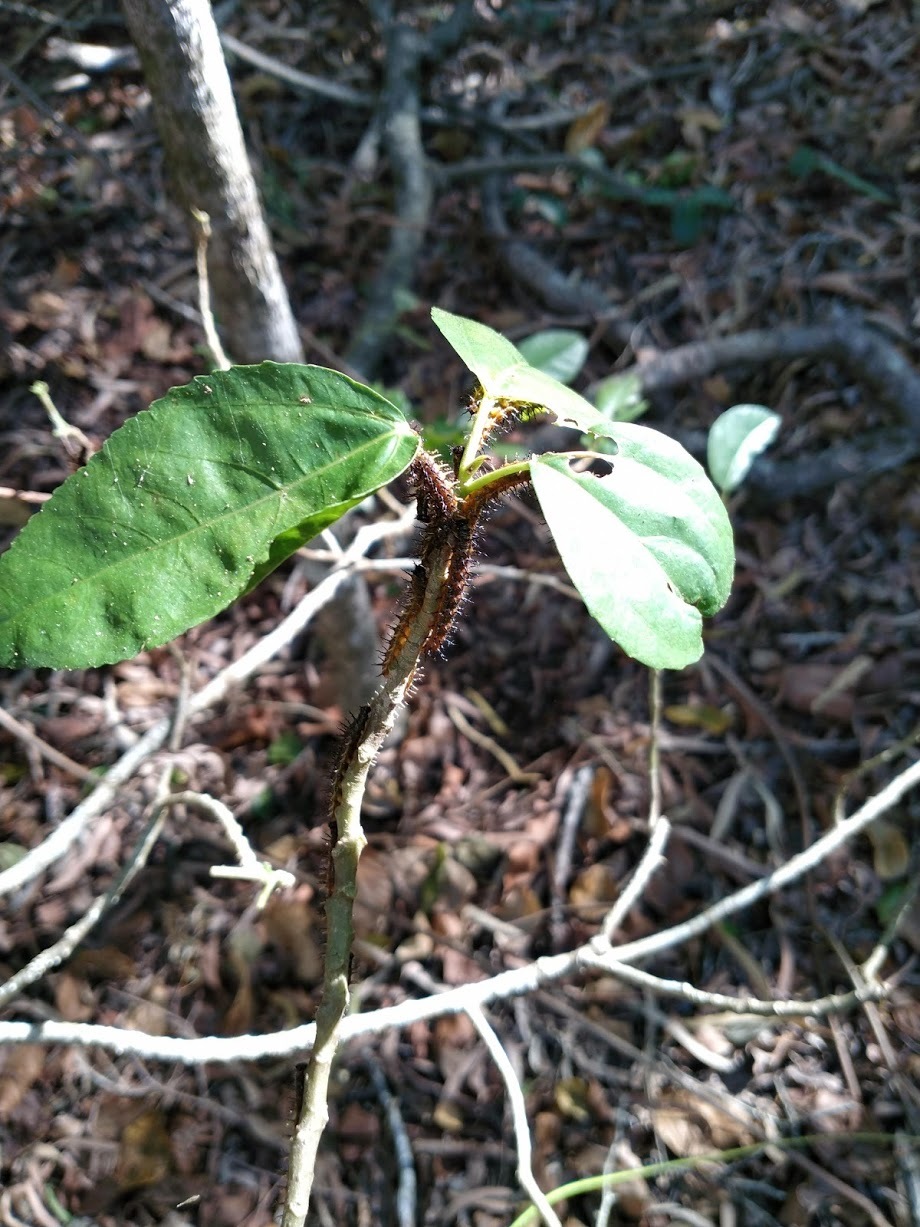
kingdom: Plantae
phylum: Tracheophyta
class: Magnoliopsida
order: Rosales
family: Urticaceae
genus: Dendrocnide
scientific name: Dendrocnide photiniphylla
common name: Shiny-leaved stinging tree
